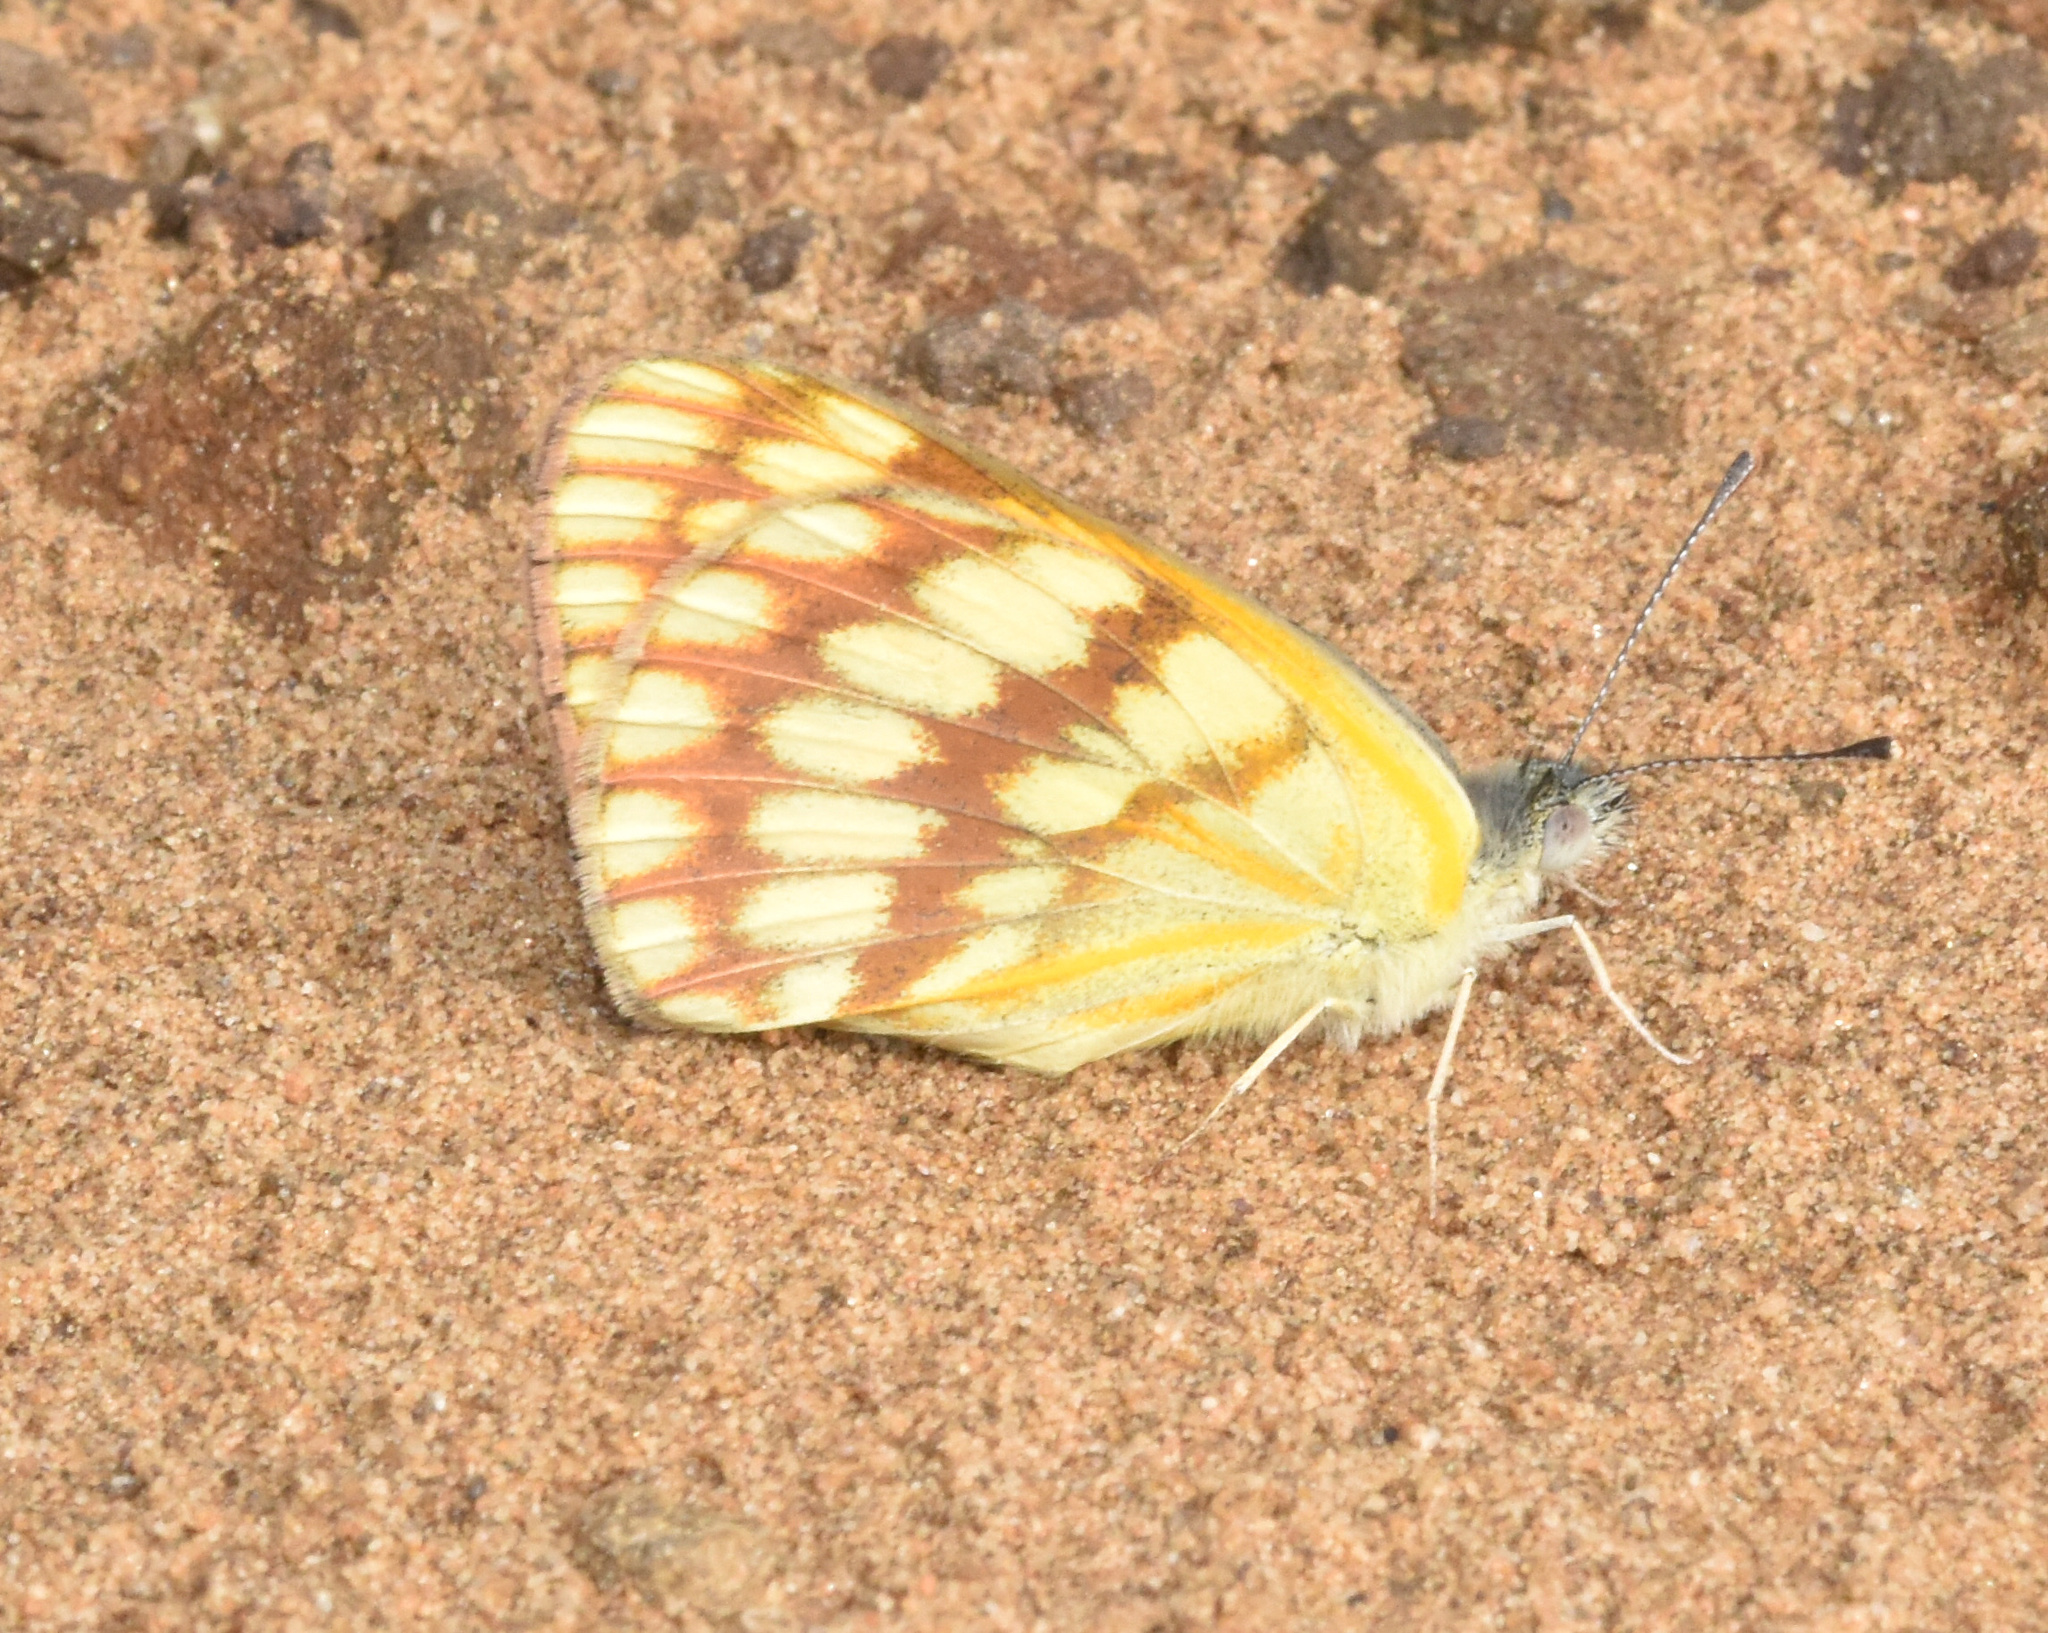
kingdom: Animalia
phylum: Arthropoda
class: Insecta
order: Lepidoptera
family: Pieridae
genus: Colotis
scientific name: Colotis vesta
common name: Veined golden arab
